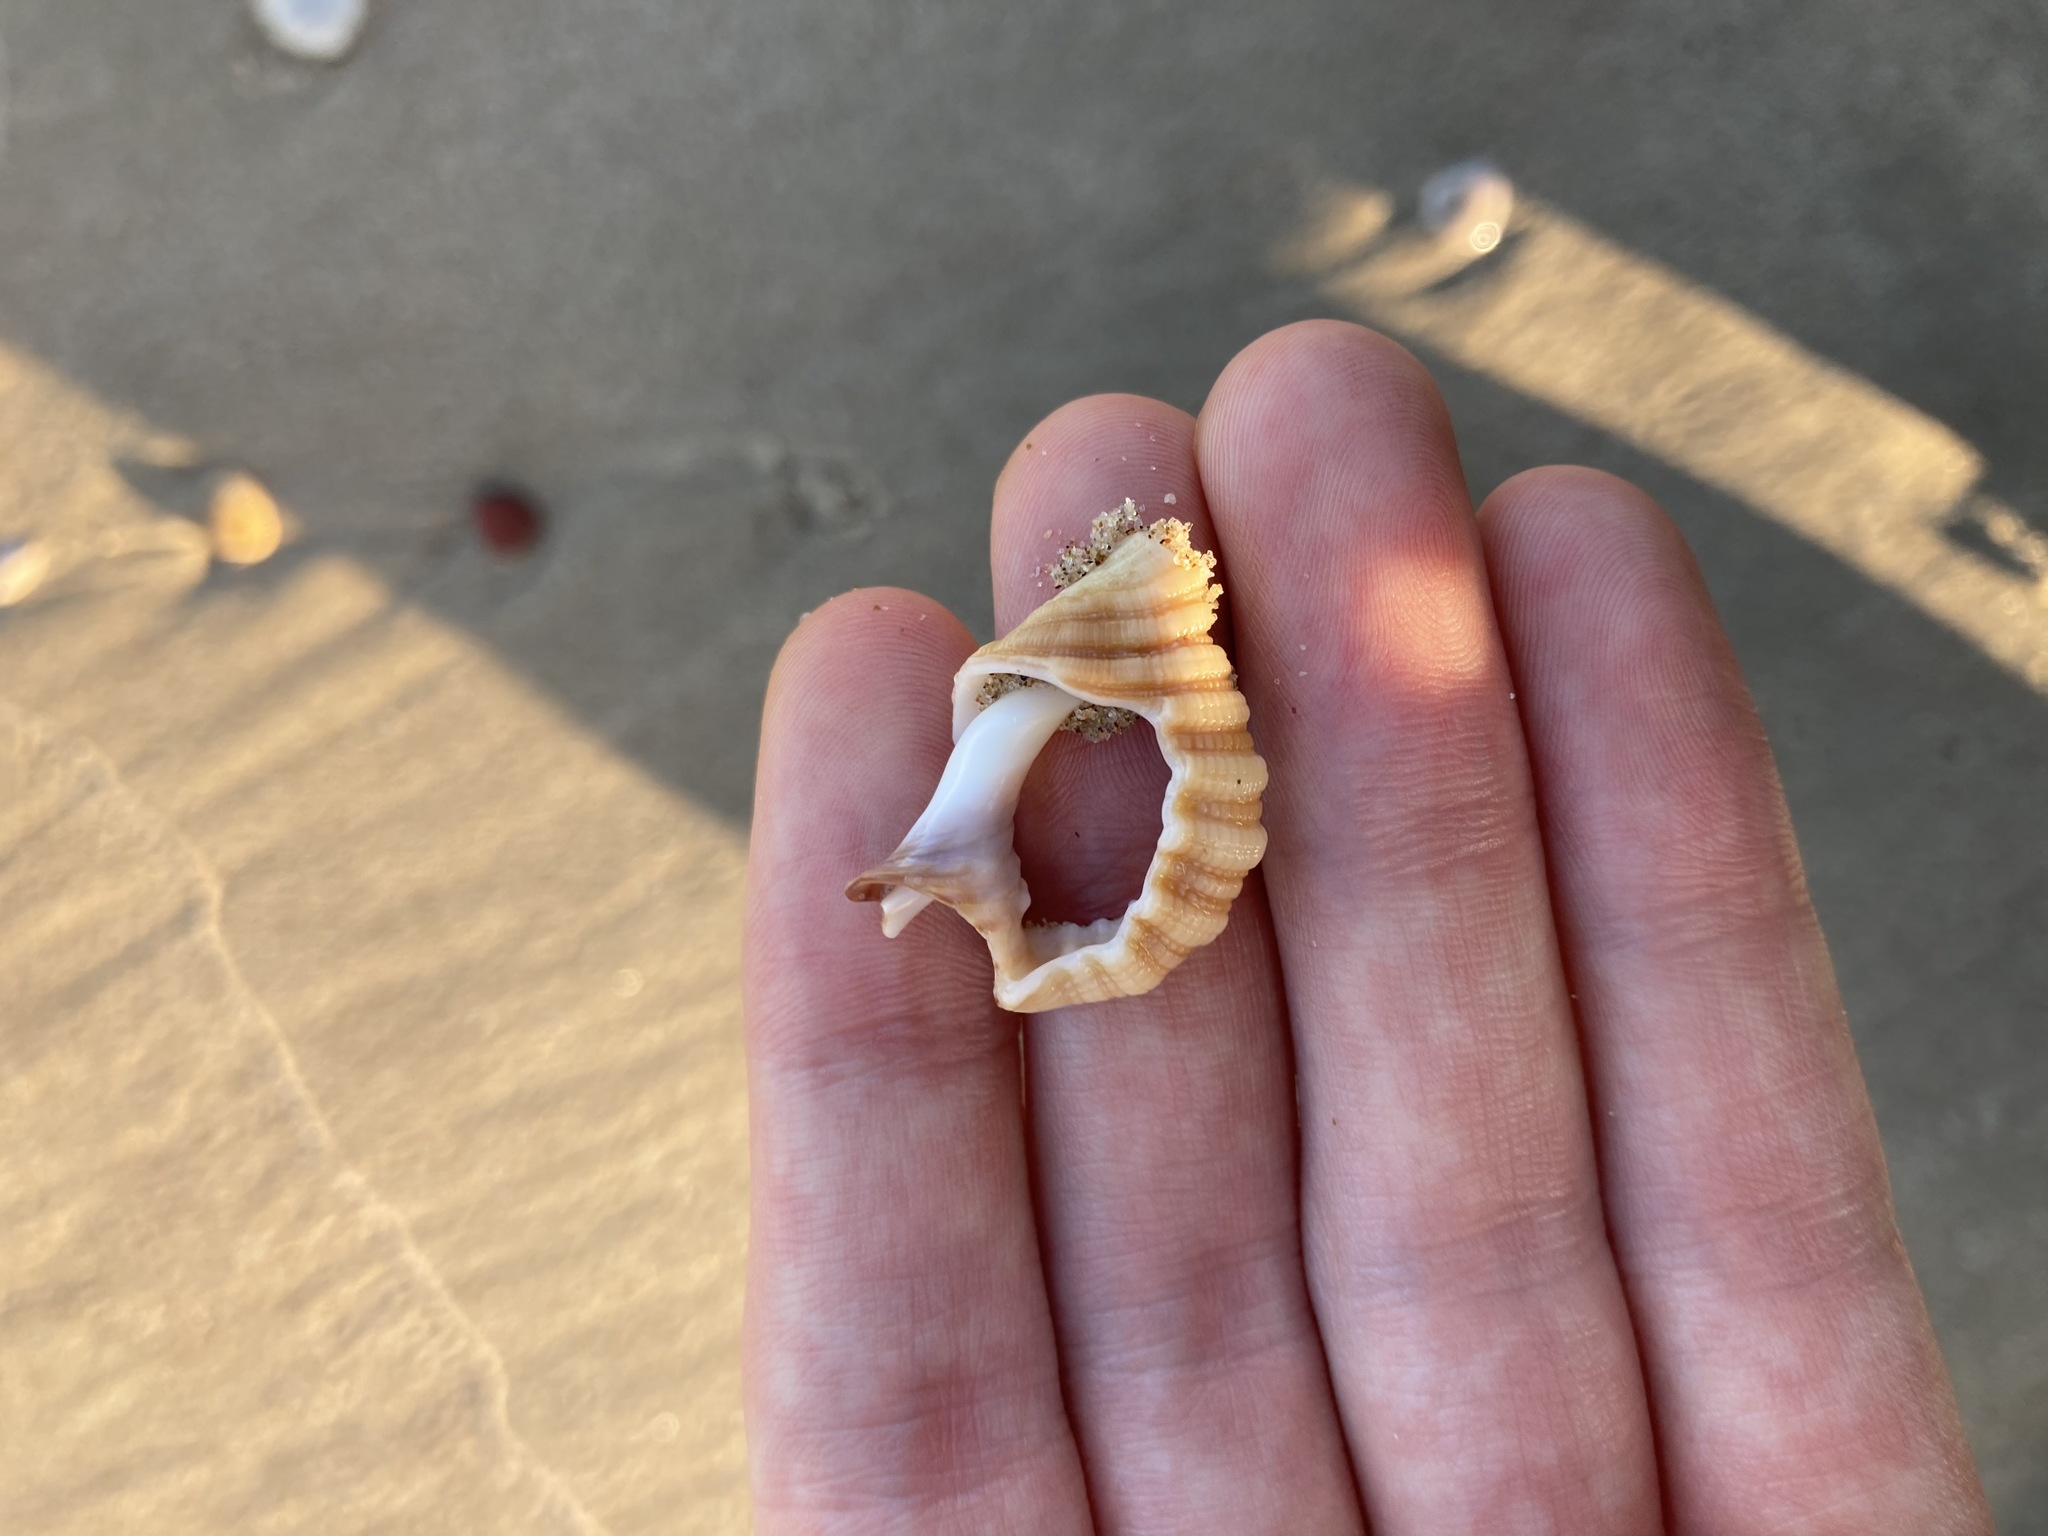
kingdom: Animalia
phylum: Mollusca
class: Gastropoda
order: Littorinimorpha
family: Cymatiidae
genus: Cabestana
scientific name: Cabestana spengleri
